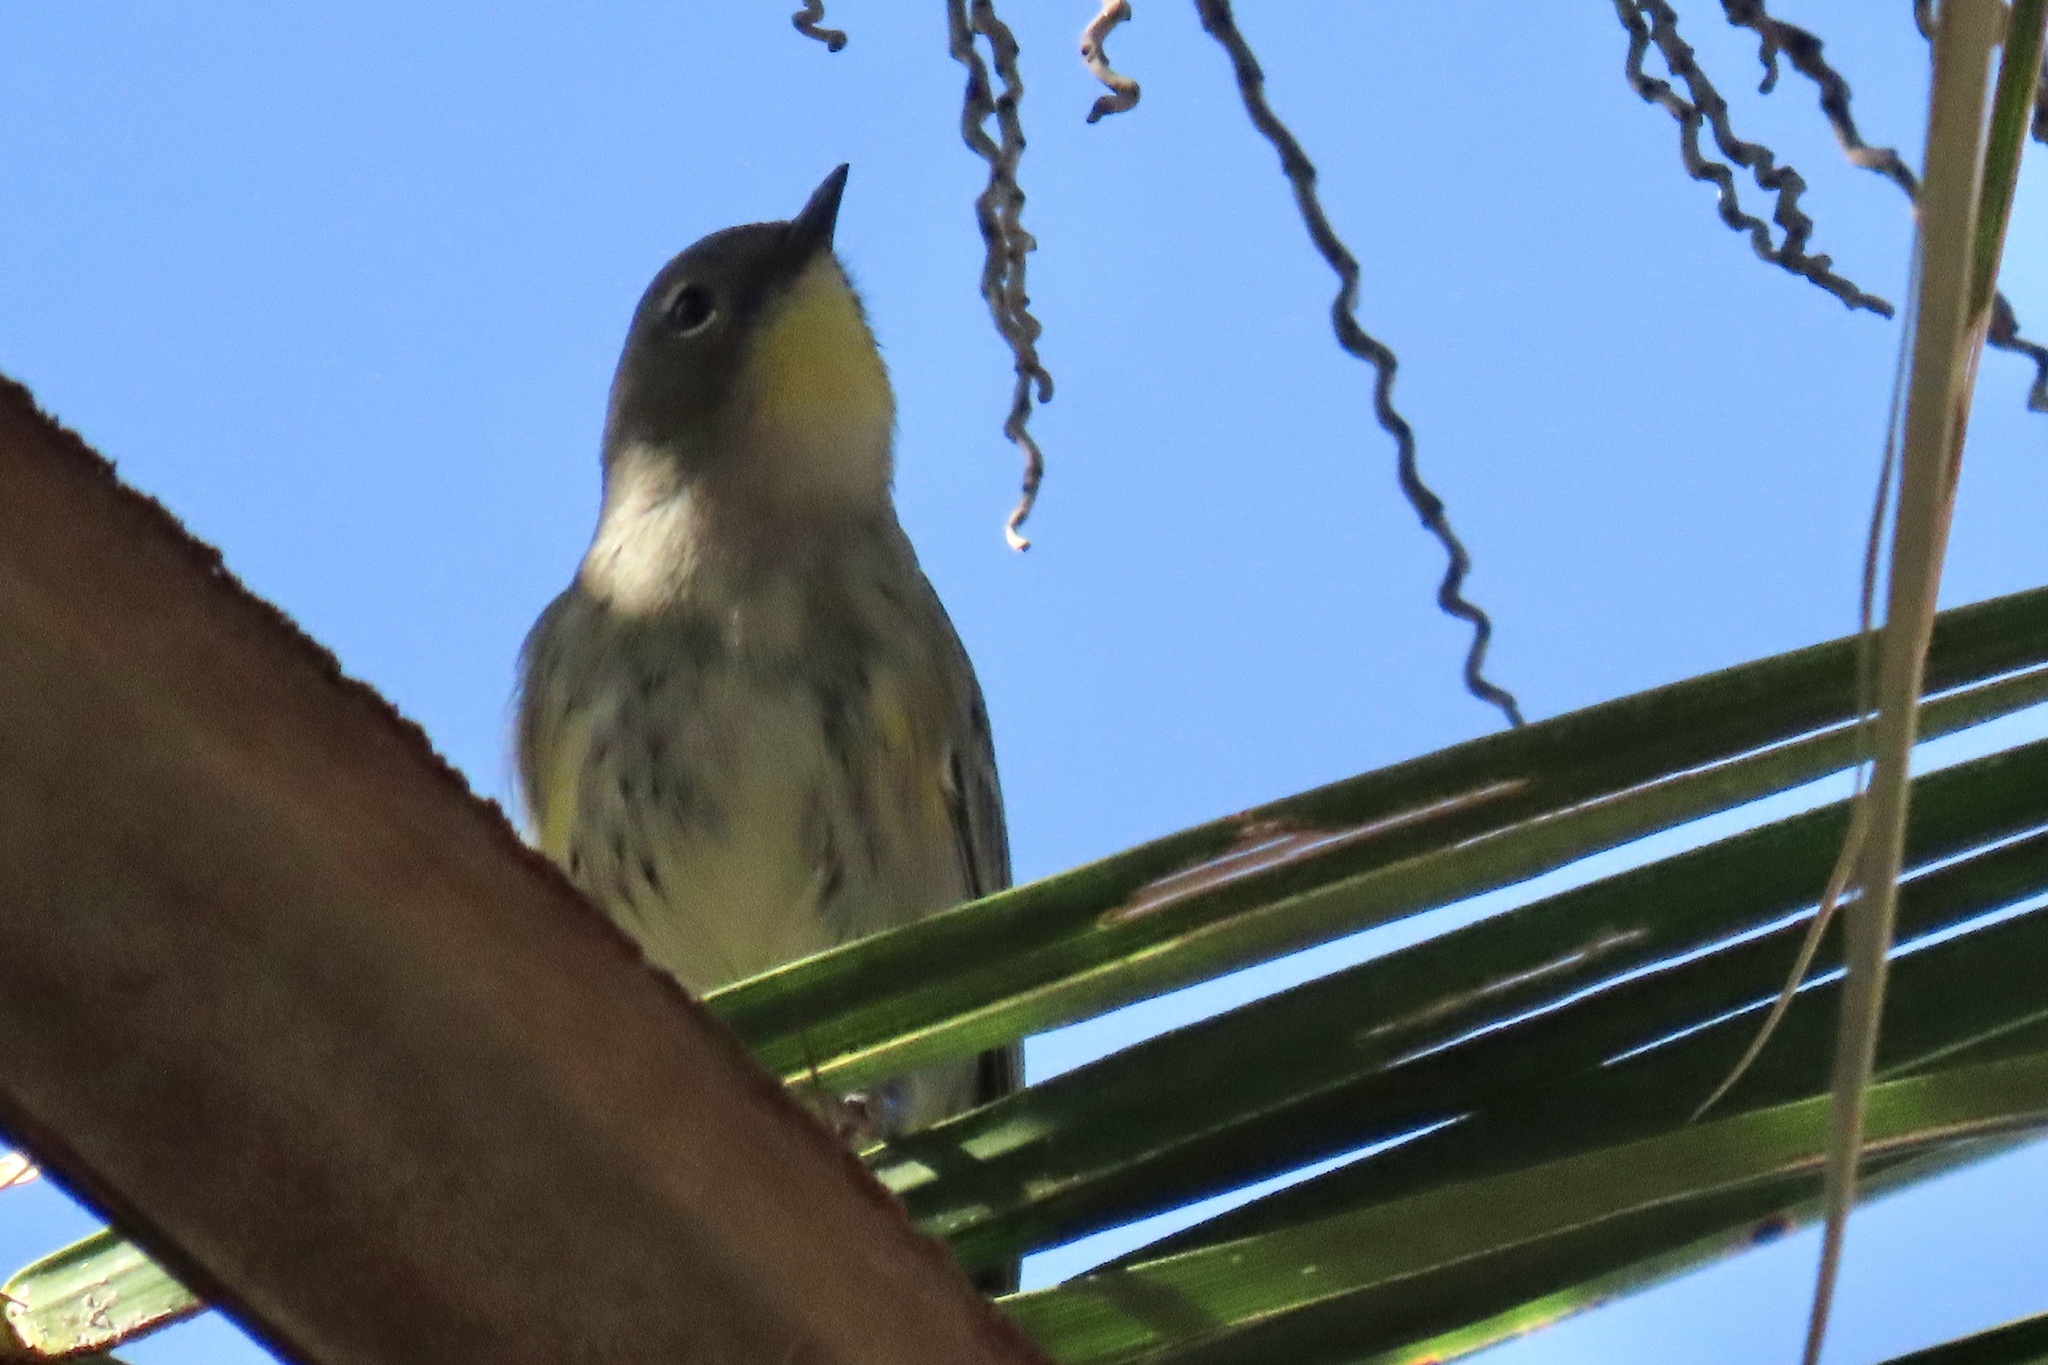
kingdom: Animalia
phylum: Chordata
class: Aves
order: Passeriformes
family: Parulidae
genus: Setophaga
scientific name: Setophaga coronata
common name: Myrtle warbler
